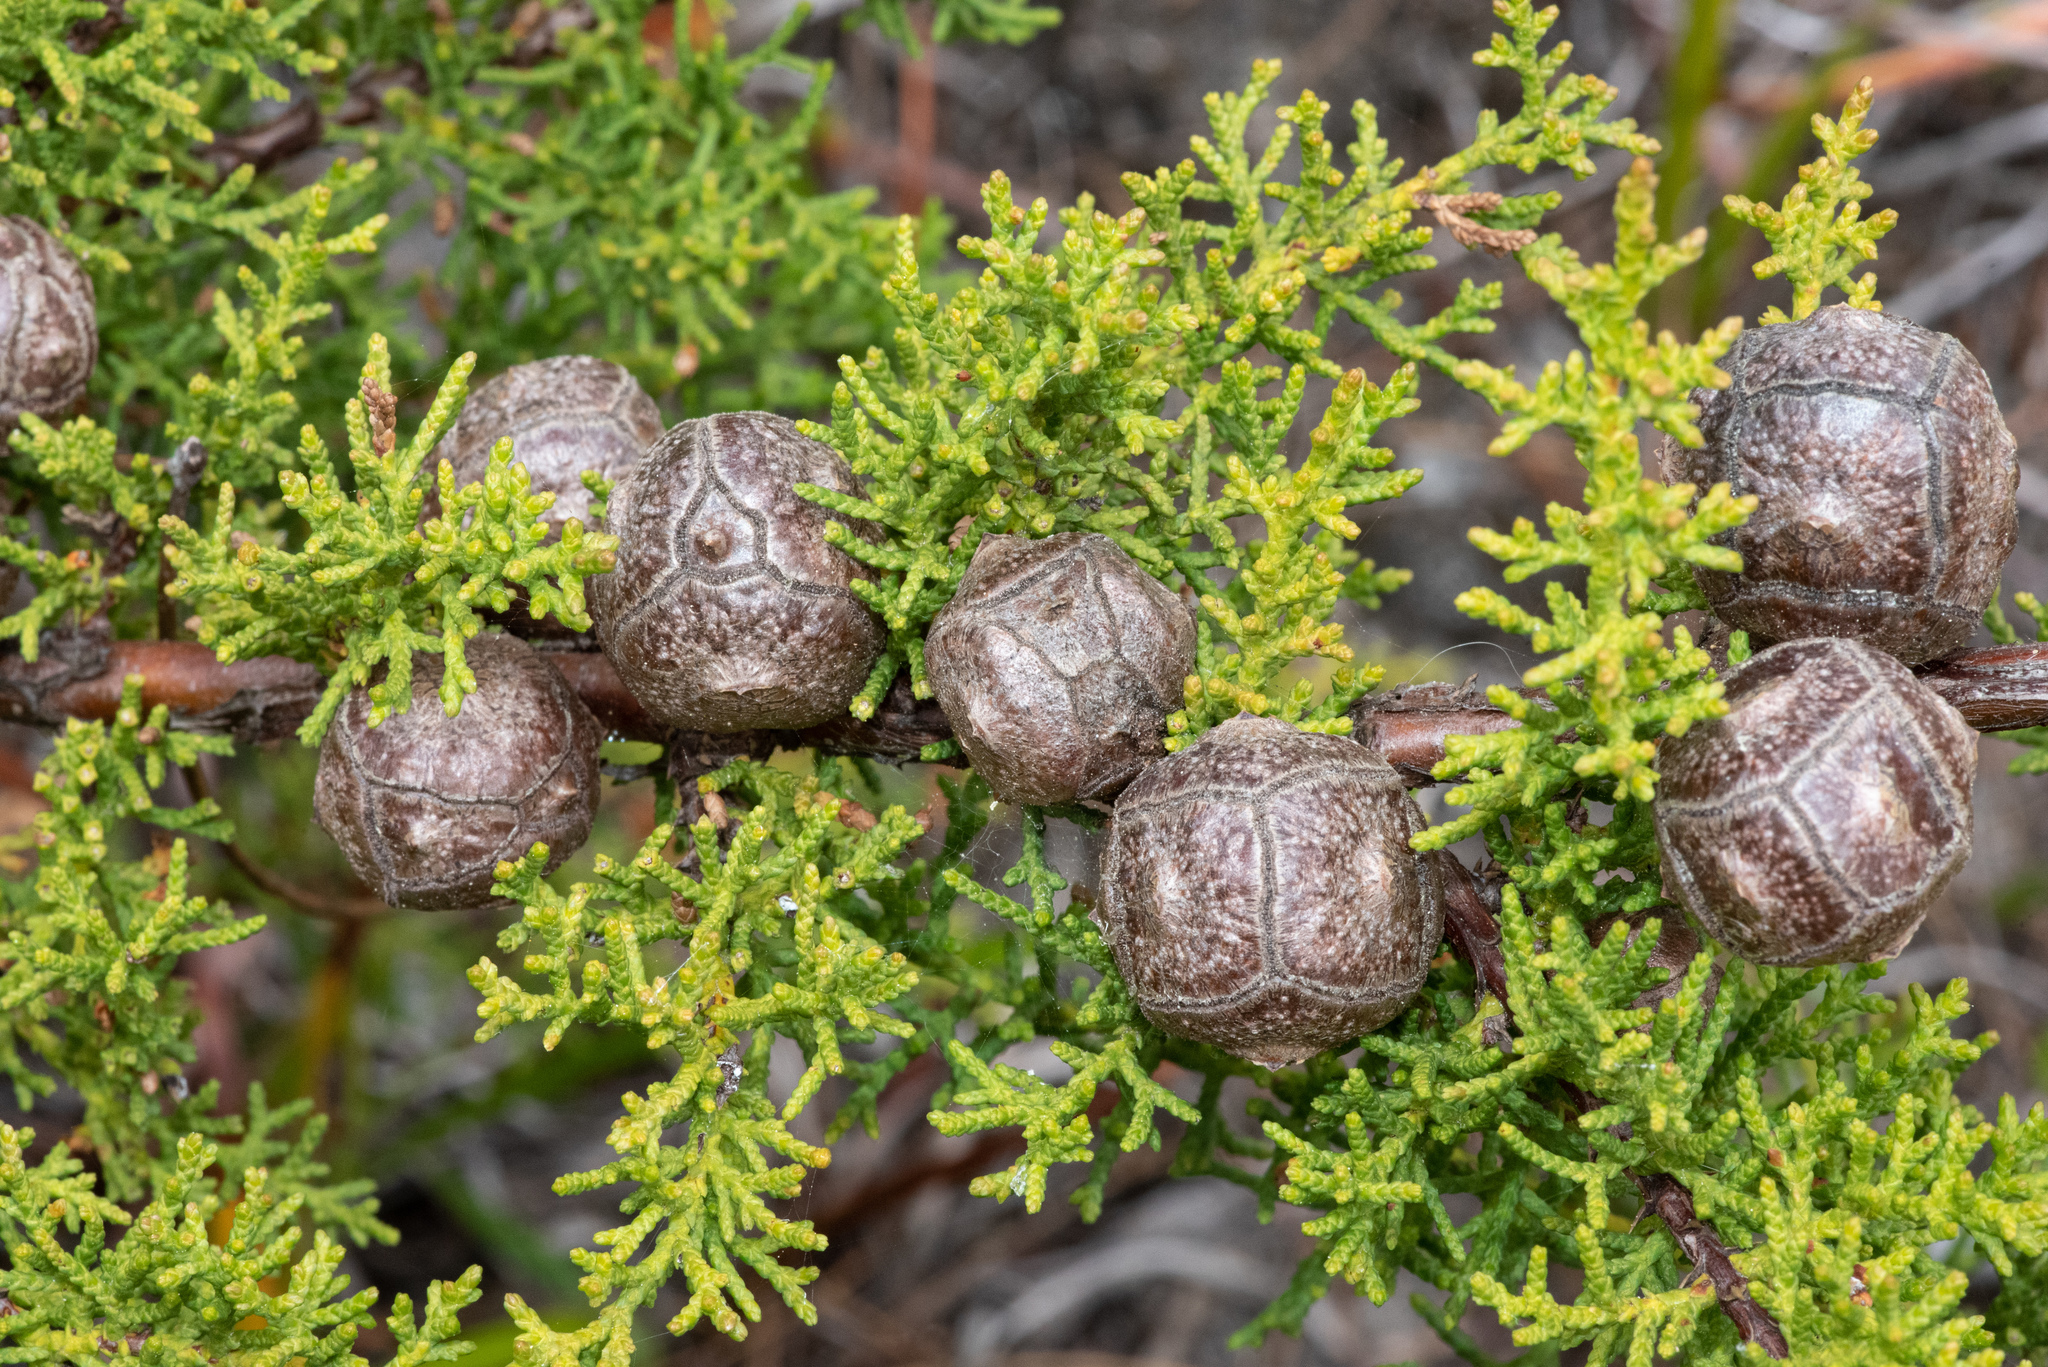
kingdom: Plantae
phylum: Tracheophyta
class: Pinopsida
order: Pinales
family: Cupressaceae
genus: Cupressus
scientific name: Cupressus goveniana
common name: Gowen cypress
